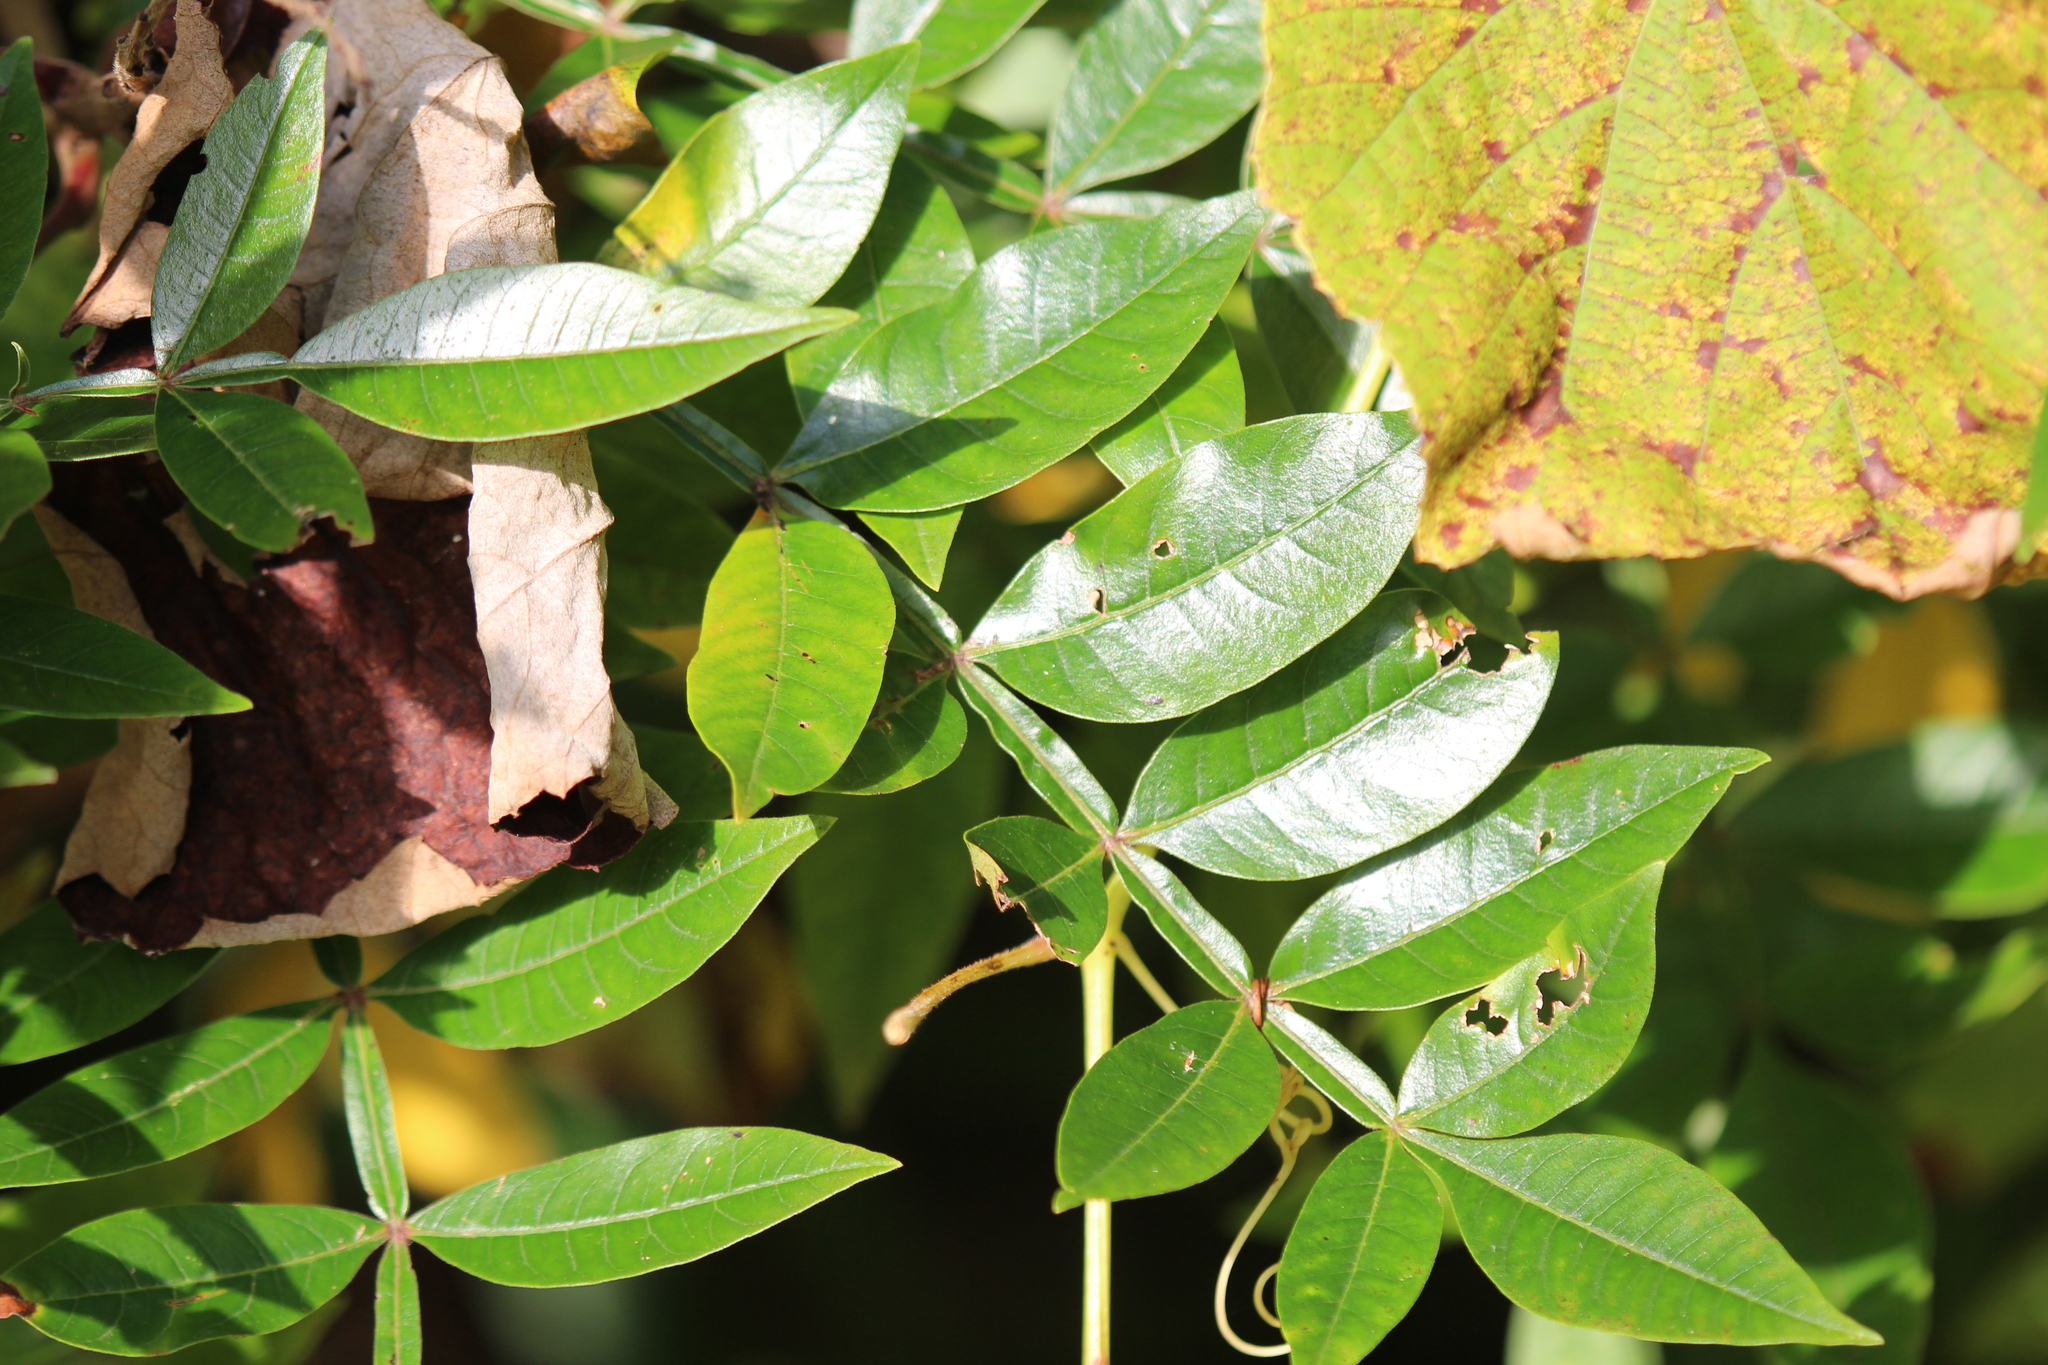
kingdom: Plantae
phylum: Tracheophyta
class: Magnoliopsida
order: Sapindales
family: Anacardiaceae
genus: Rhus
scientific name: Rhus copallina
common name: Shining sumac
